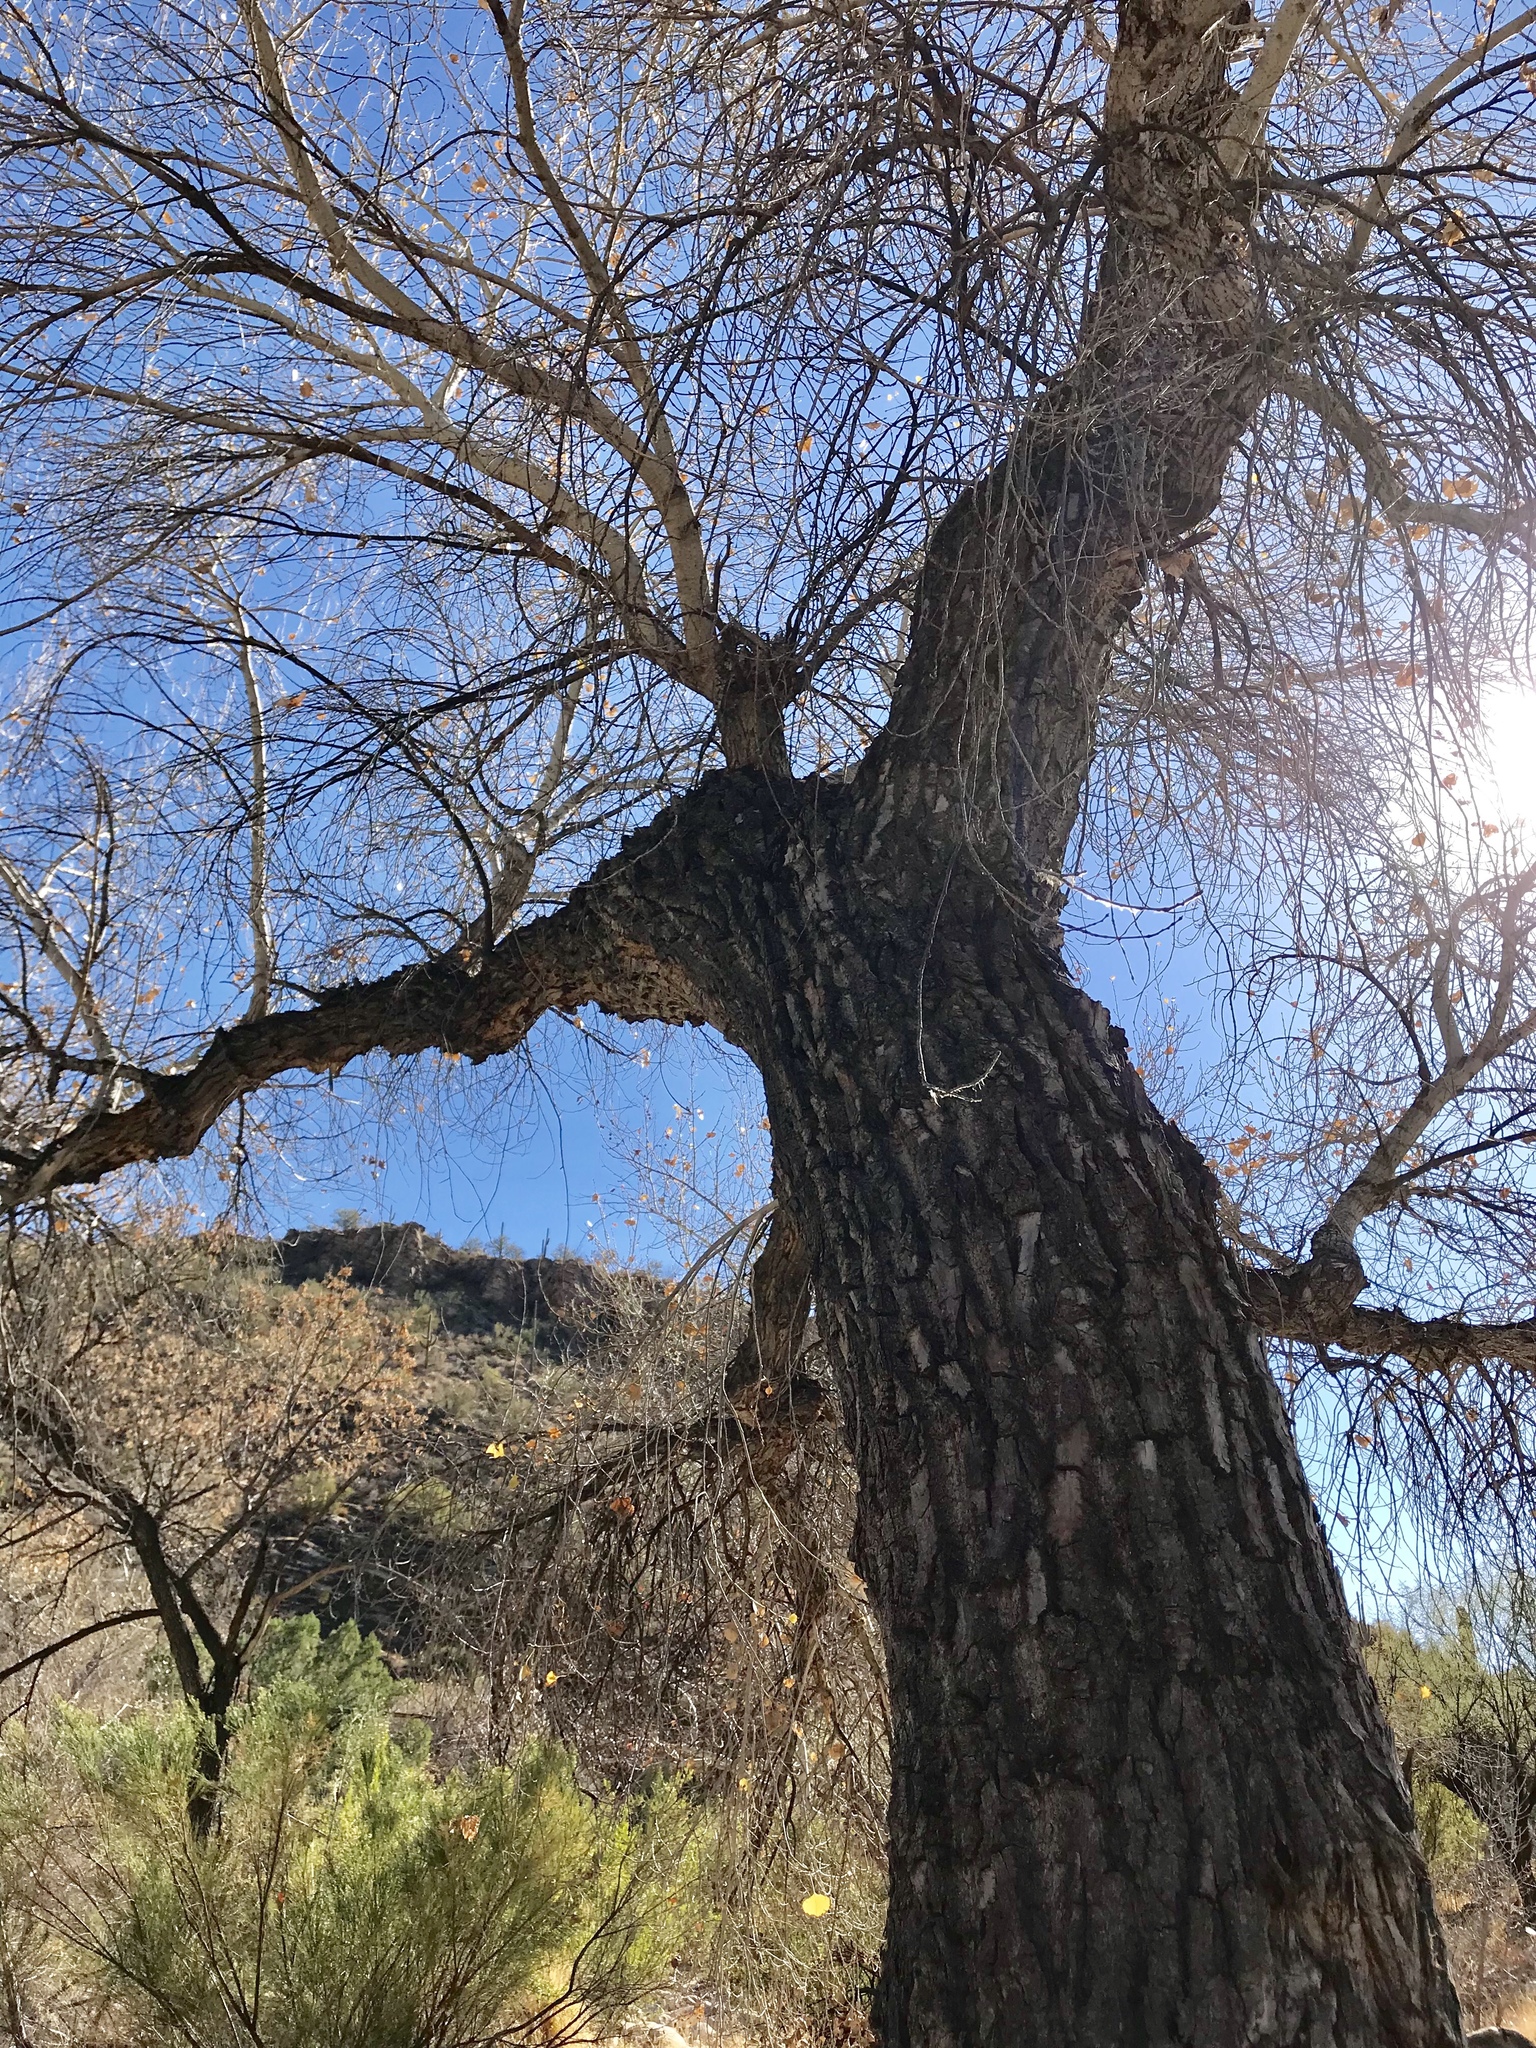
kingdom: Plantae
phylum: Tracheophyta
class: Magnoliopsida
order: Malpighiales
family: Salicaceae
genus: Populus
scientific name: Populus fremontii
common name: Fremont's cottonwood
